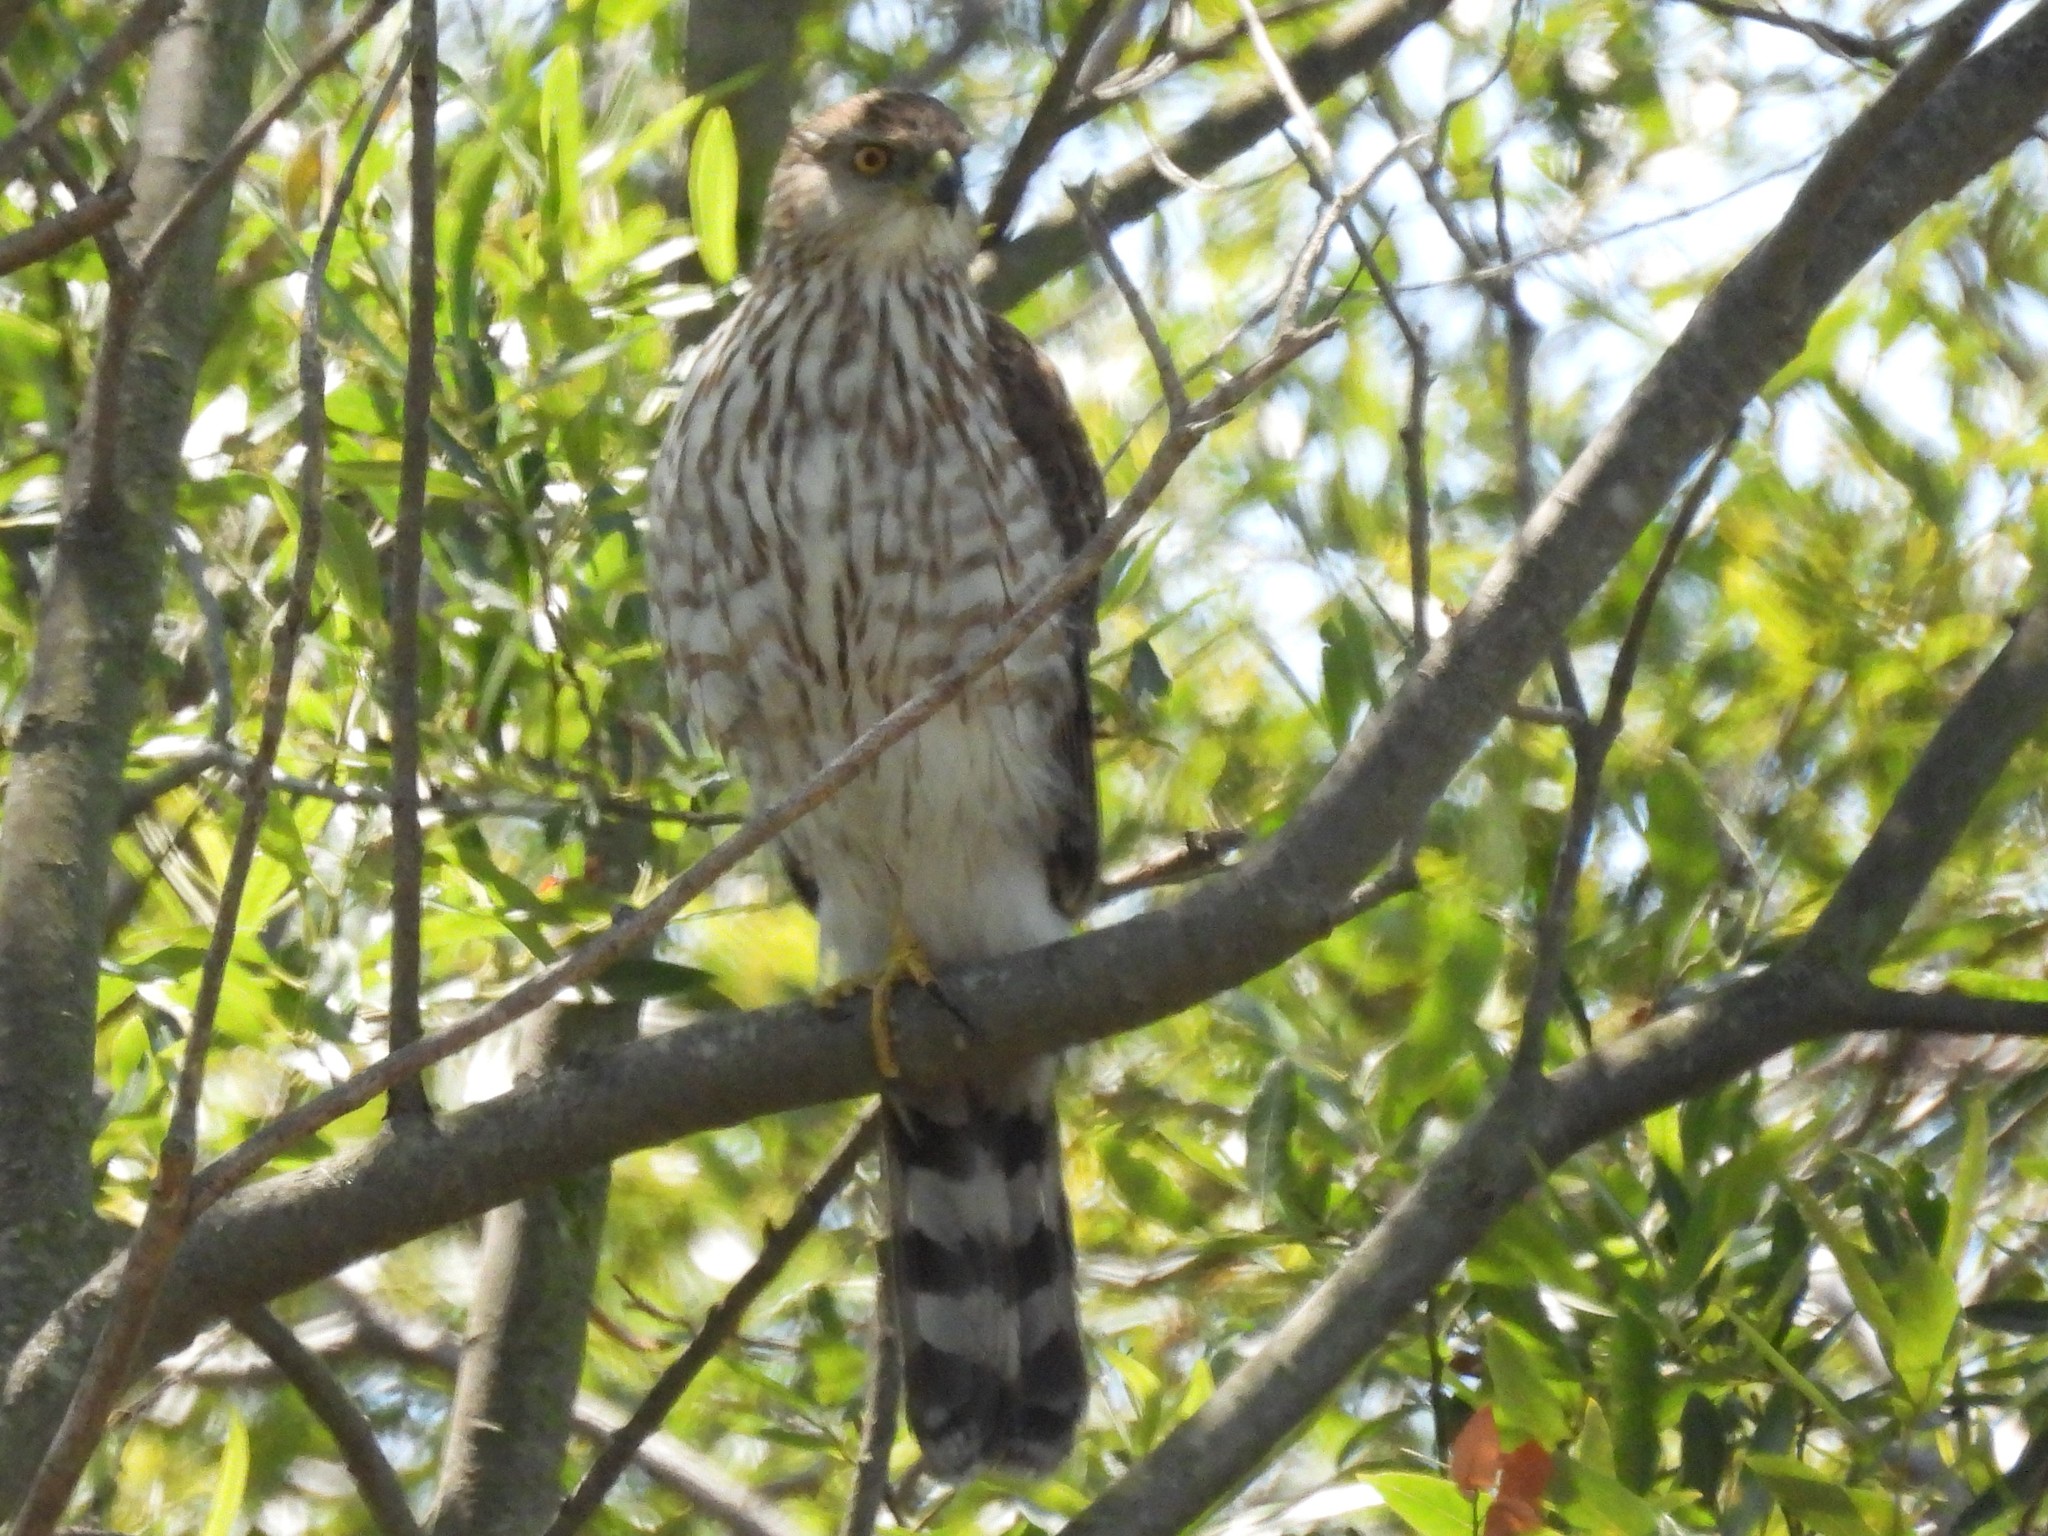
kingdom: Animalia
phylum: Chordata
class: Aves
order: Accipitriformes
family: Accipitridae
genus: Accipiter
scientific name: Accipiter cooperii
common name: Cooper's hawk
